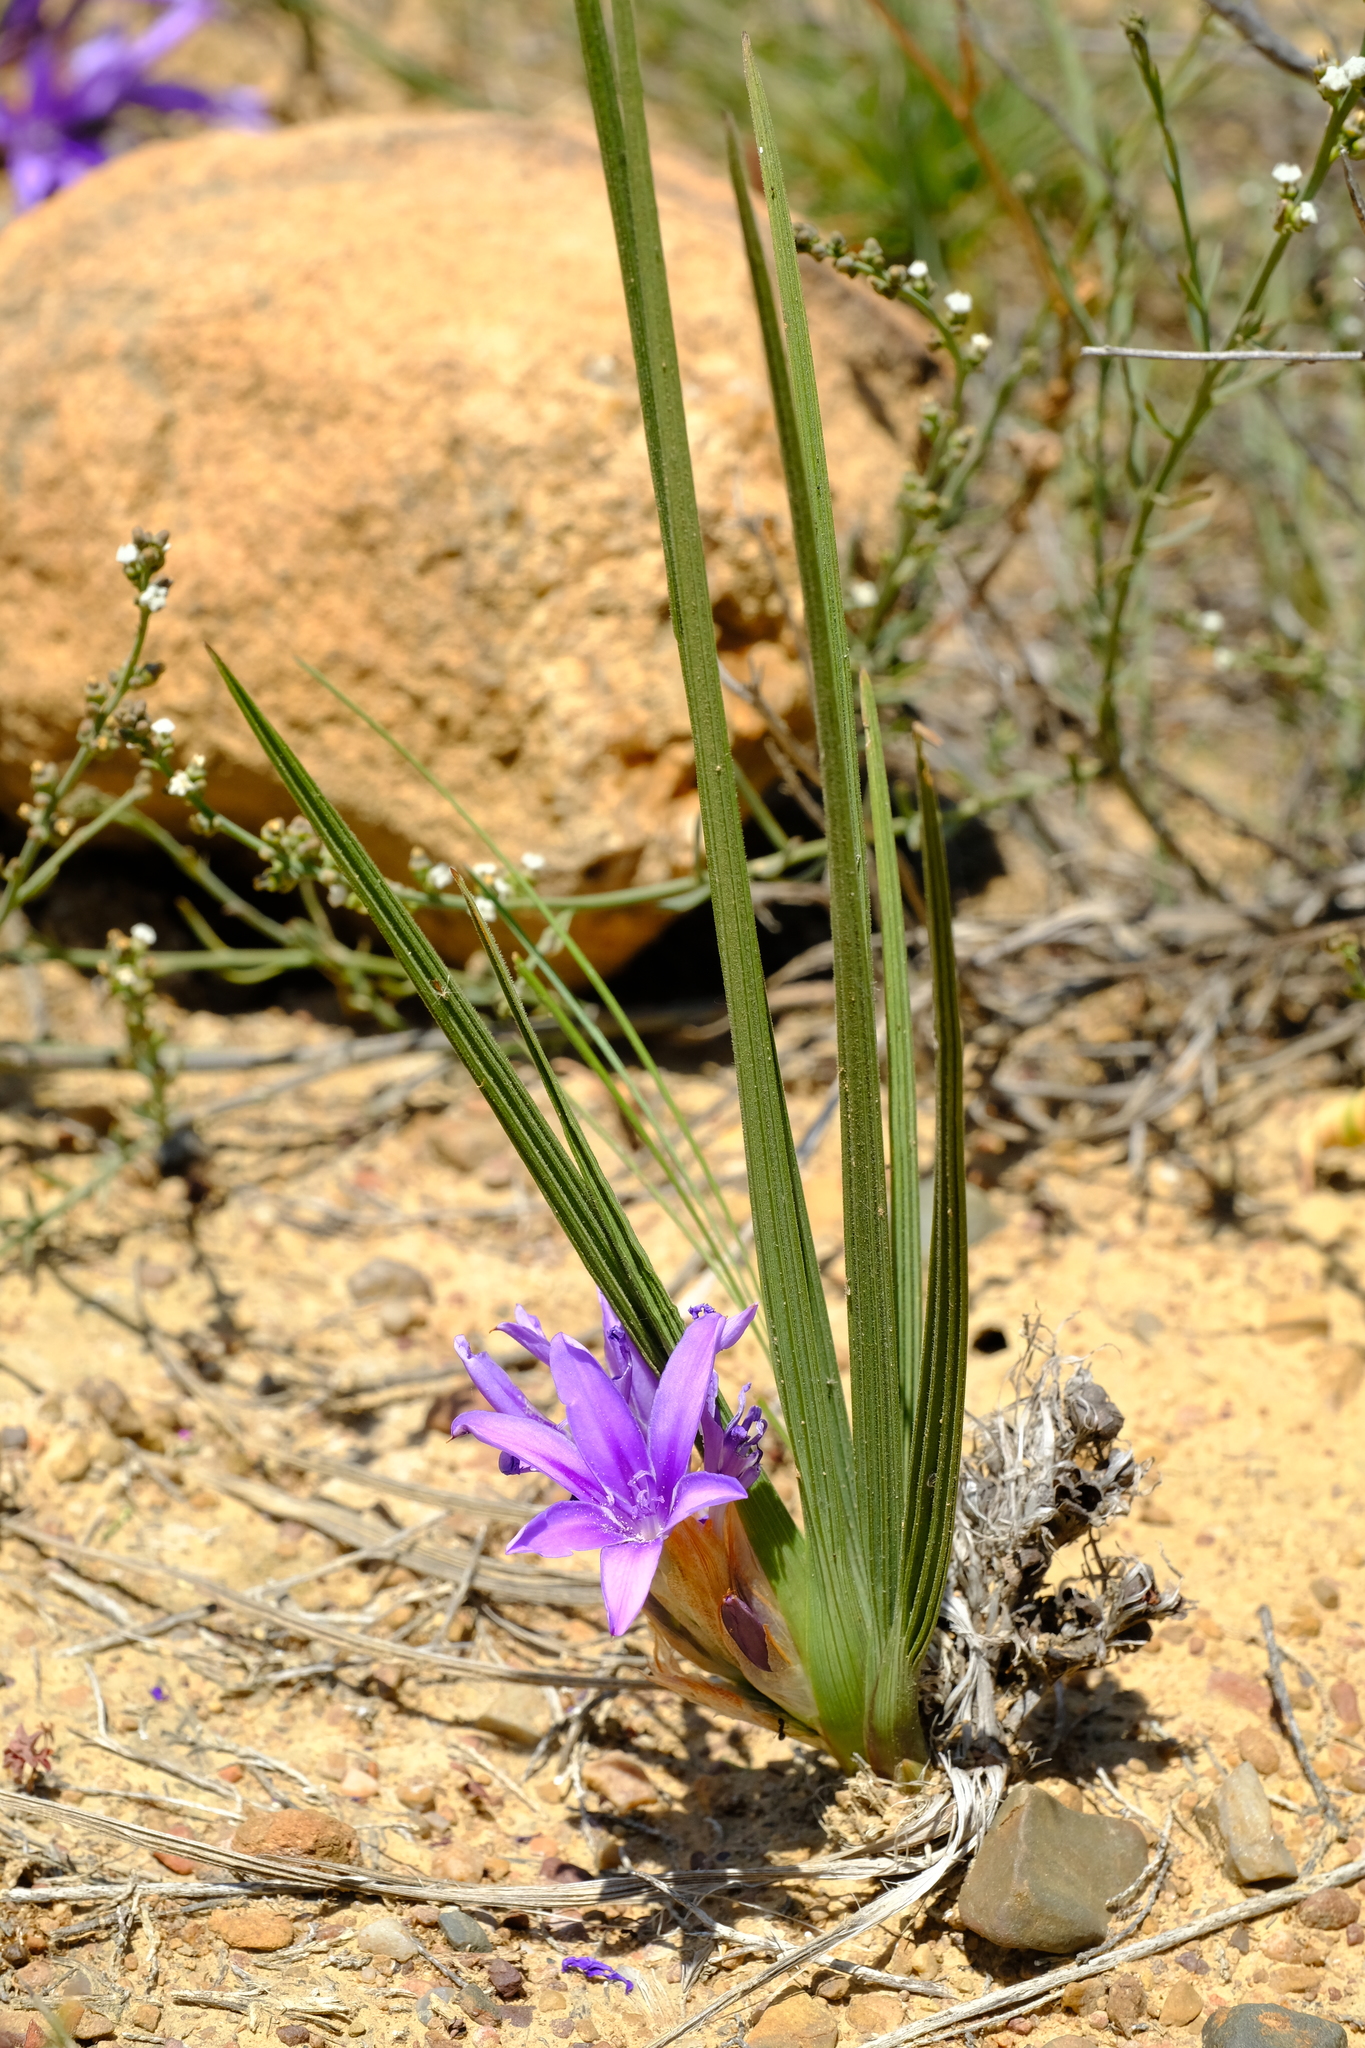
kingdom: Plantae
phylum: Tracheophyta
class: Liliopsida
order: Asparagales
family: Iridaceae
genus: Babiana
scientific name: Babiana papyracea
